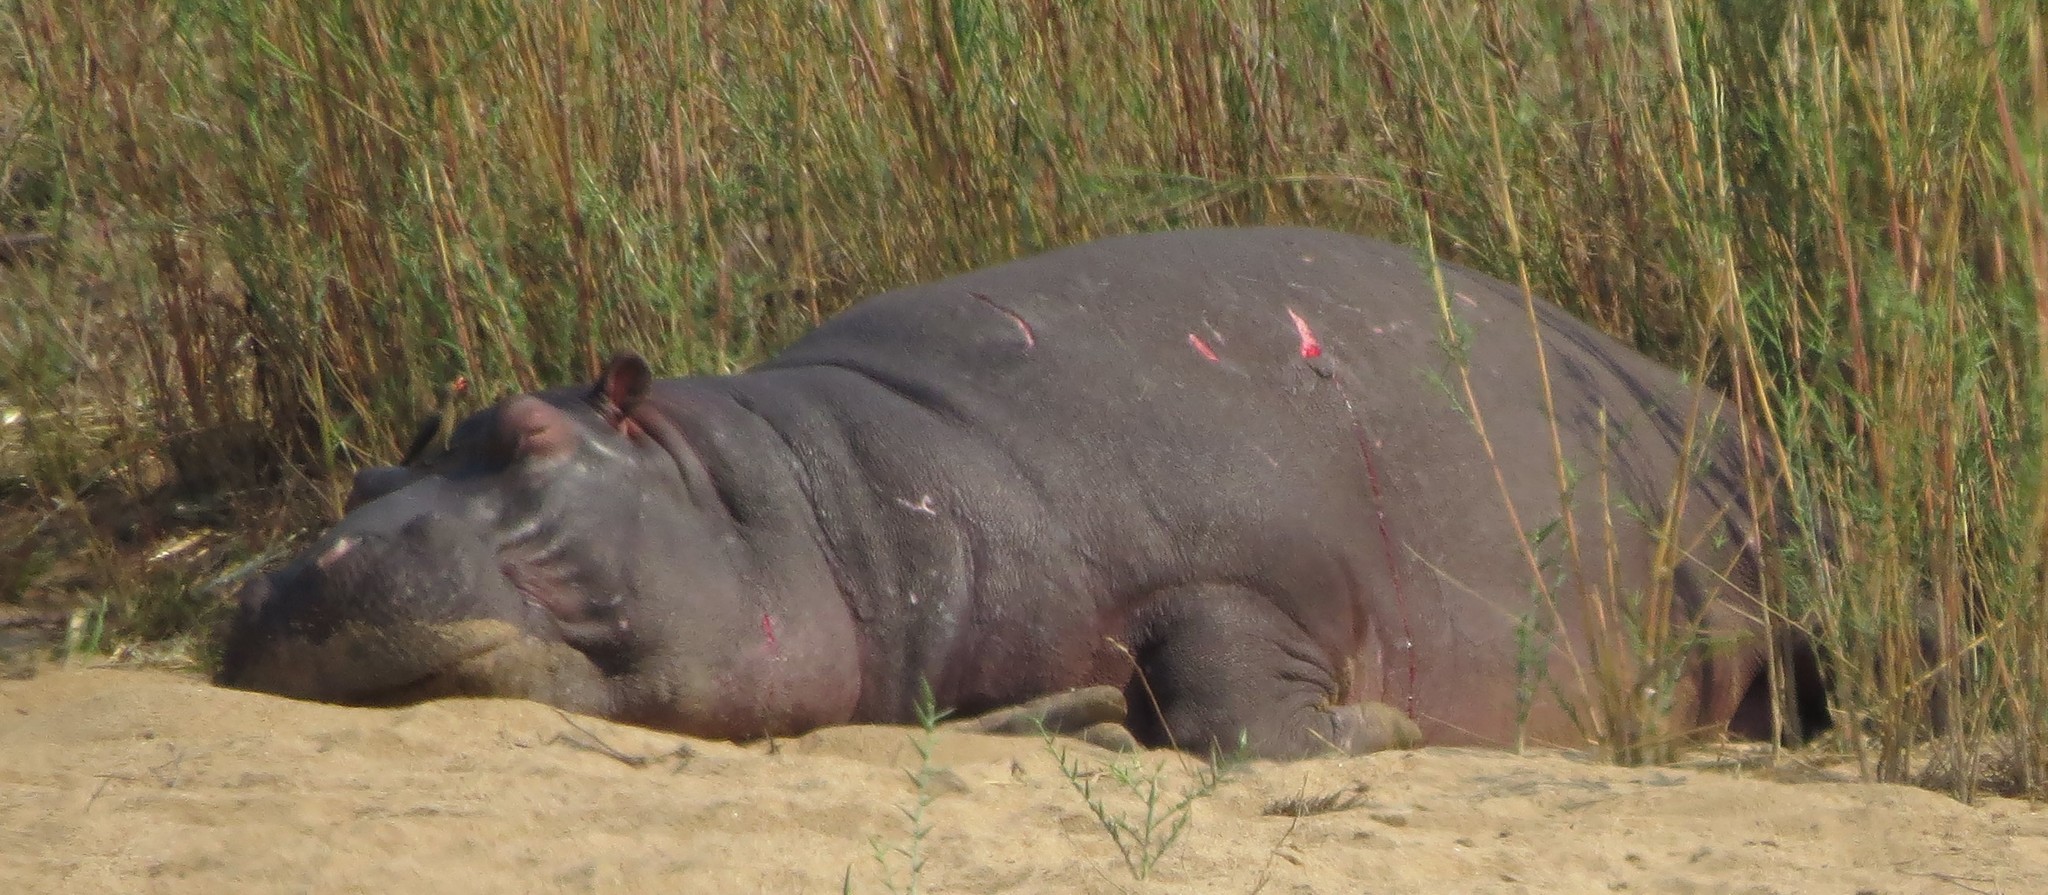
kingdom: Animalia
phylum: Chordata
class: Mammalia
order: Artiodactyla
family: Hippopotamidae
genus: Hippopotamus
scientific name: Hippopotamus amphibius
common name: Common hippopotamus
